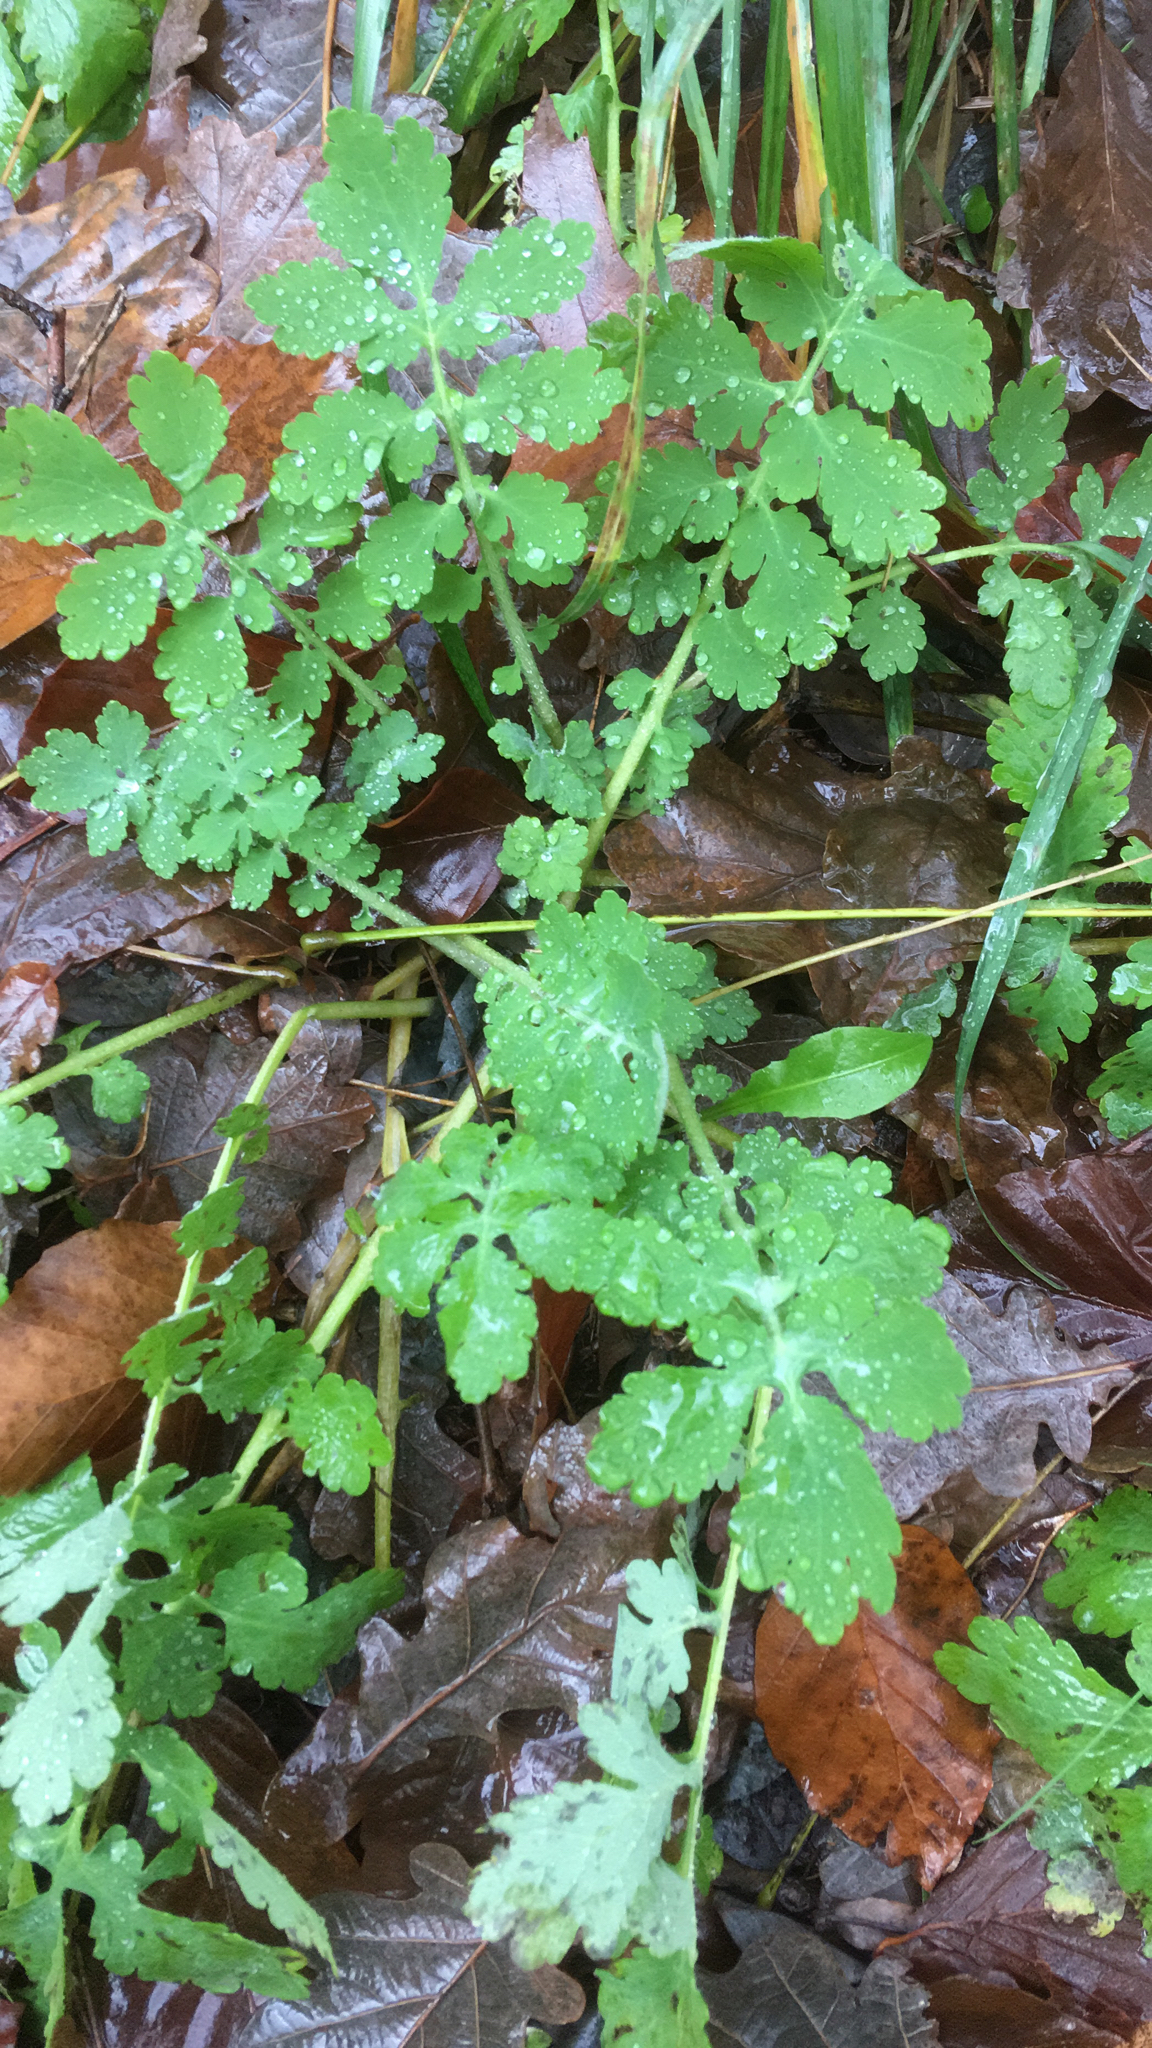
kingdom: Plantae
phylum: Tracheophyta
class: Magnoliopsida
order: Ranunculales
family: Papaveraceae
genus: Chelidonium
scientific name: Chelidonium majus
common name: Greater celandine
